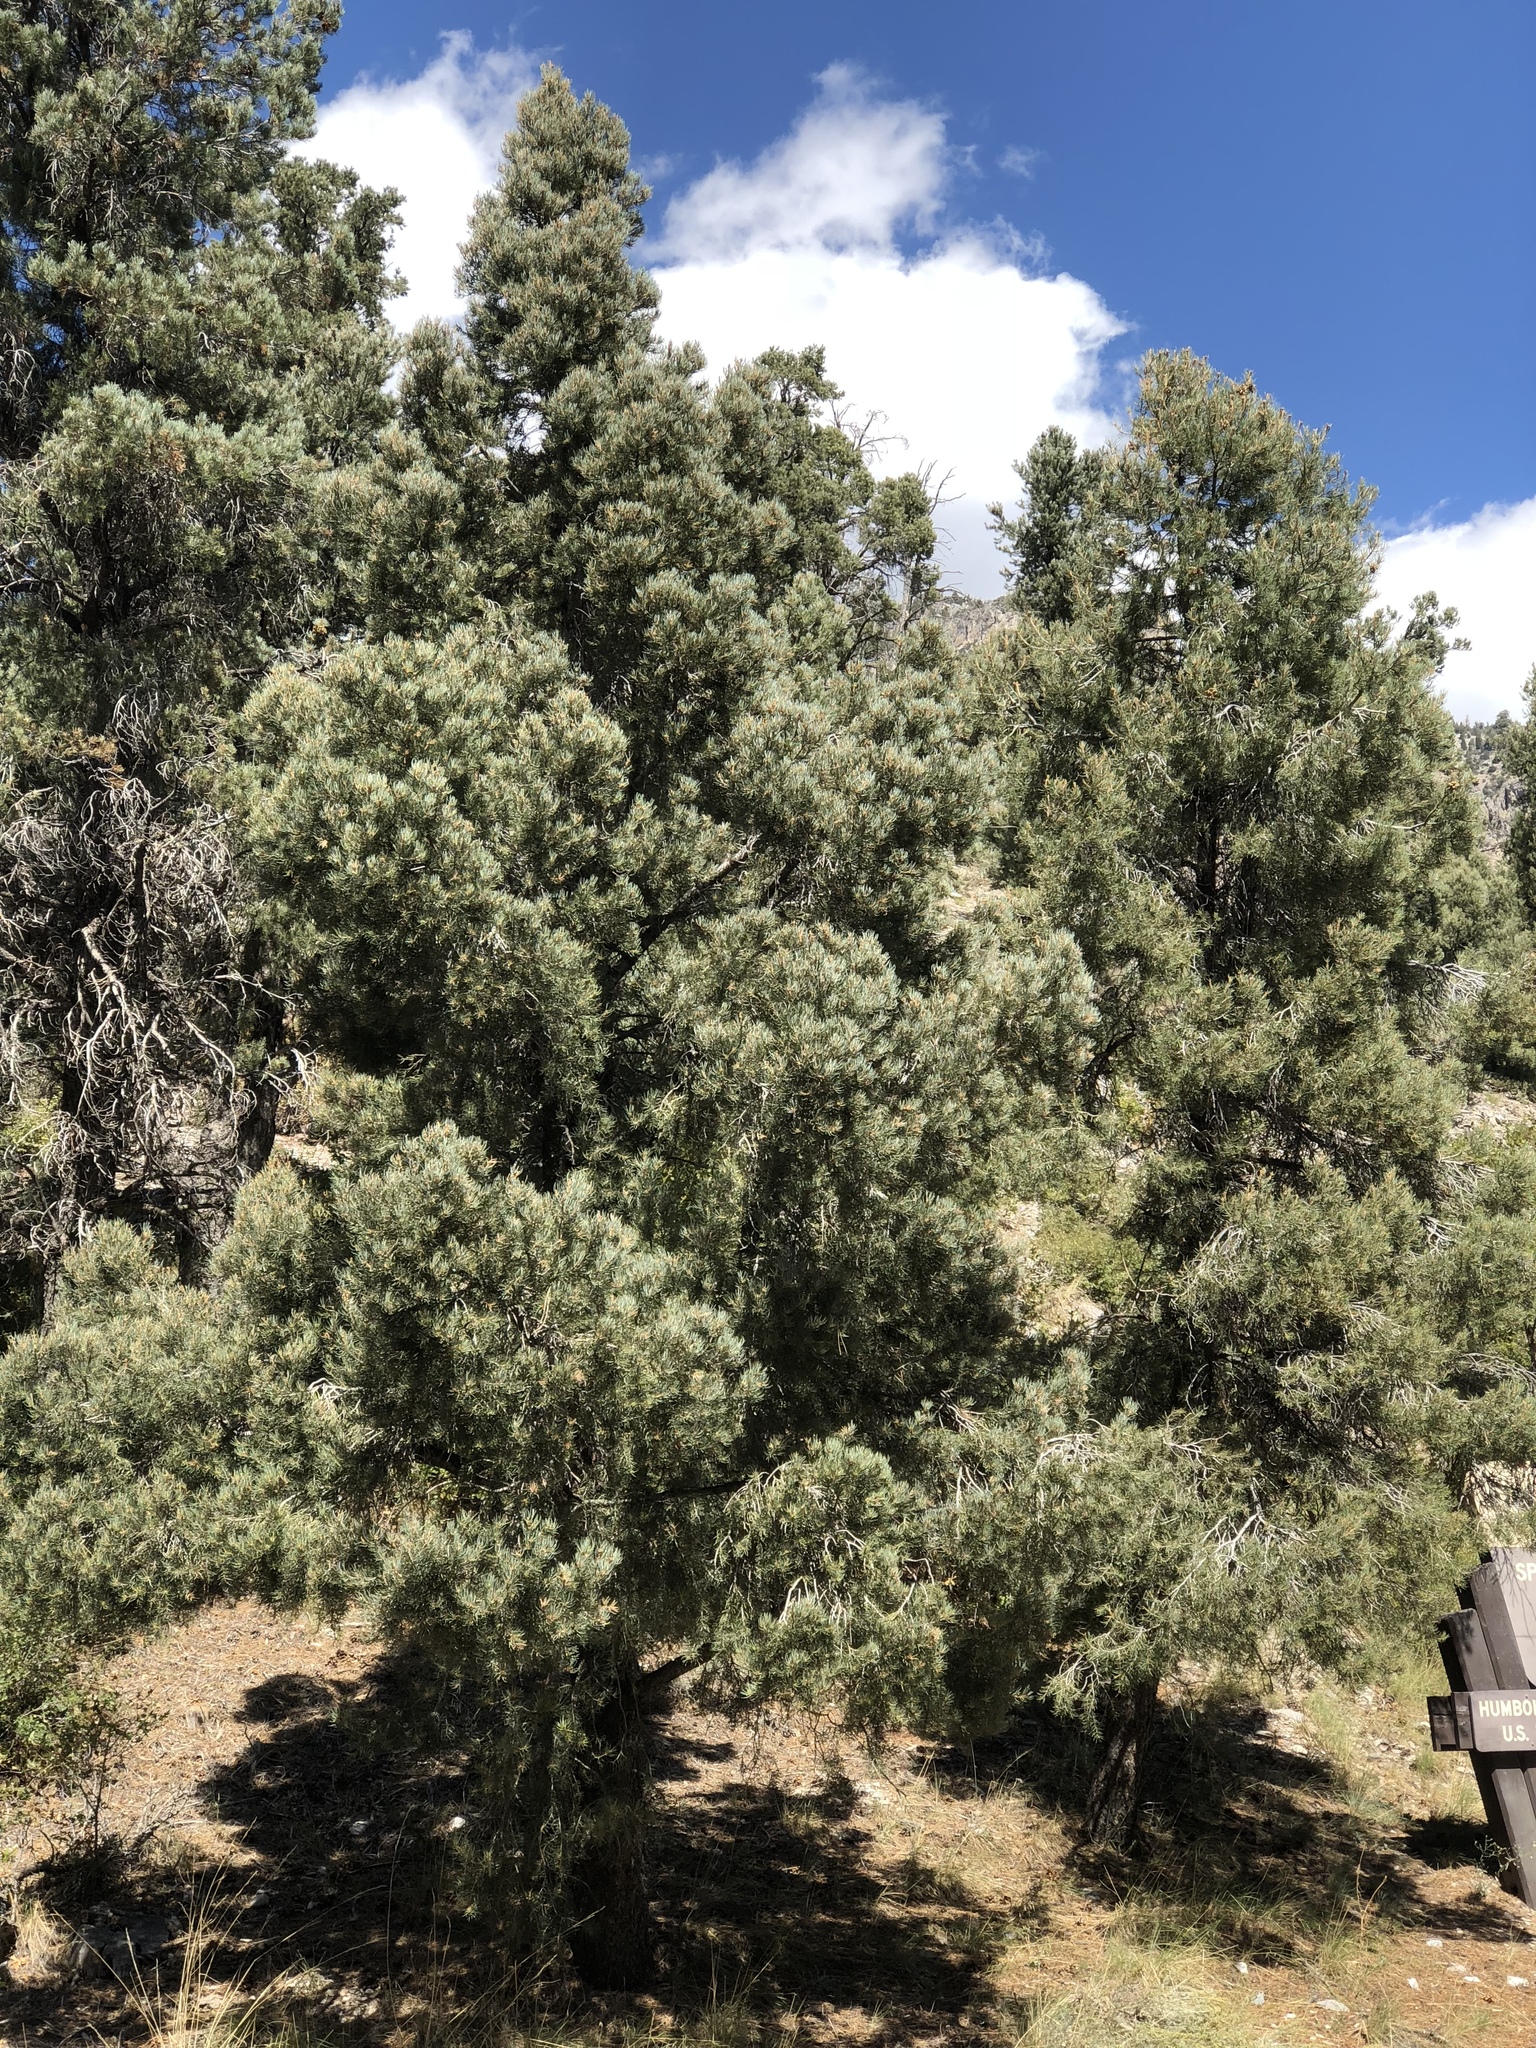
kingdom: Plantae
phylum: Tracheophyta
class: Pinopsida
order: Pinales
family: Pinaceae
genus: Pinus
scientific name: Pinus monophylla
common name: One-leaved nut pine
